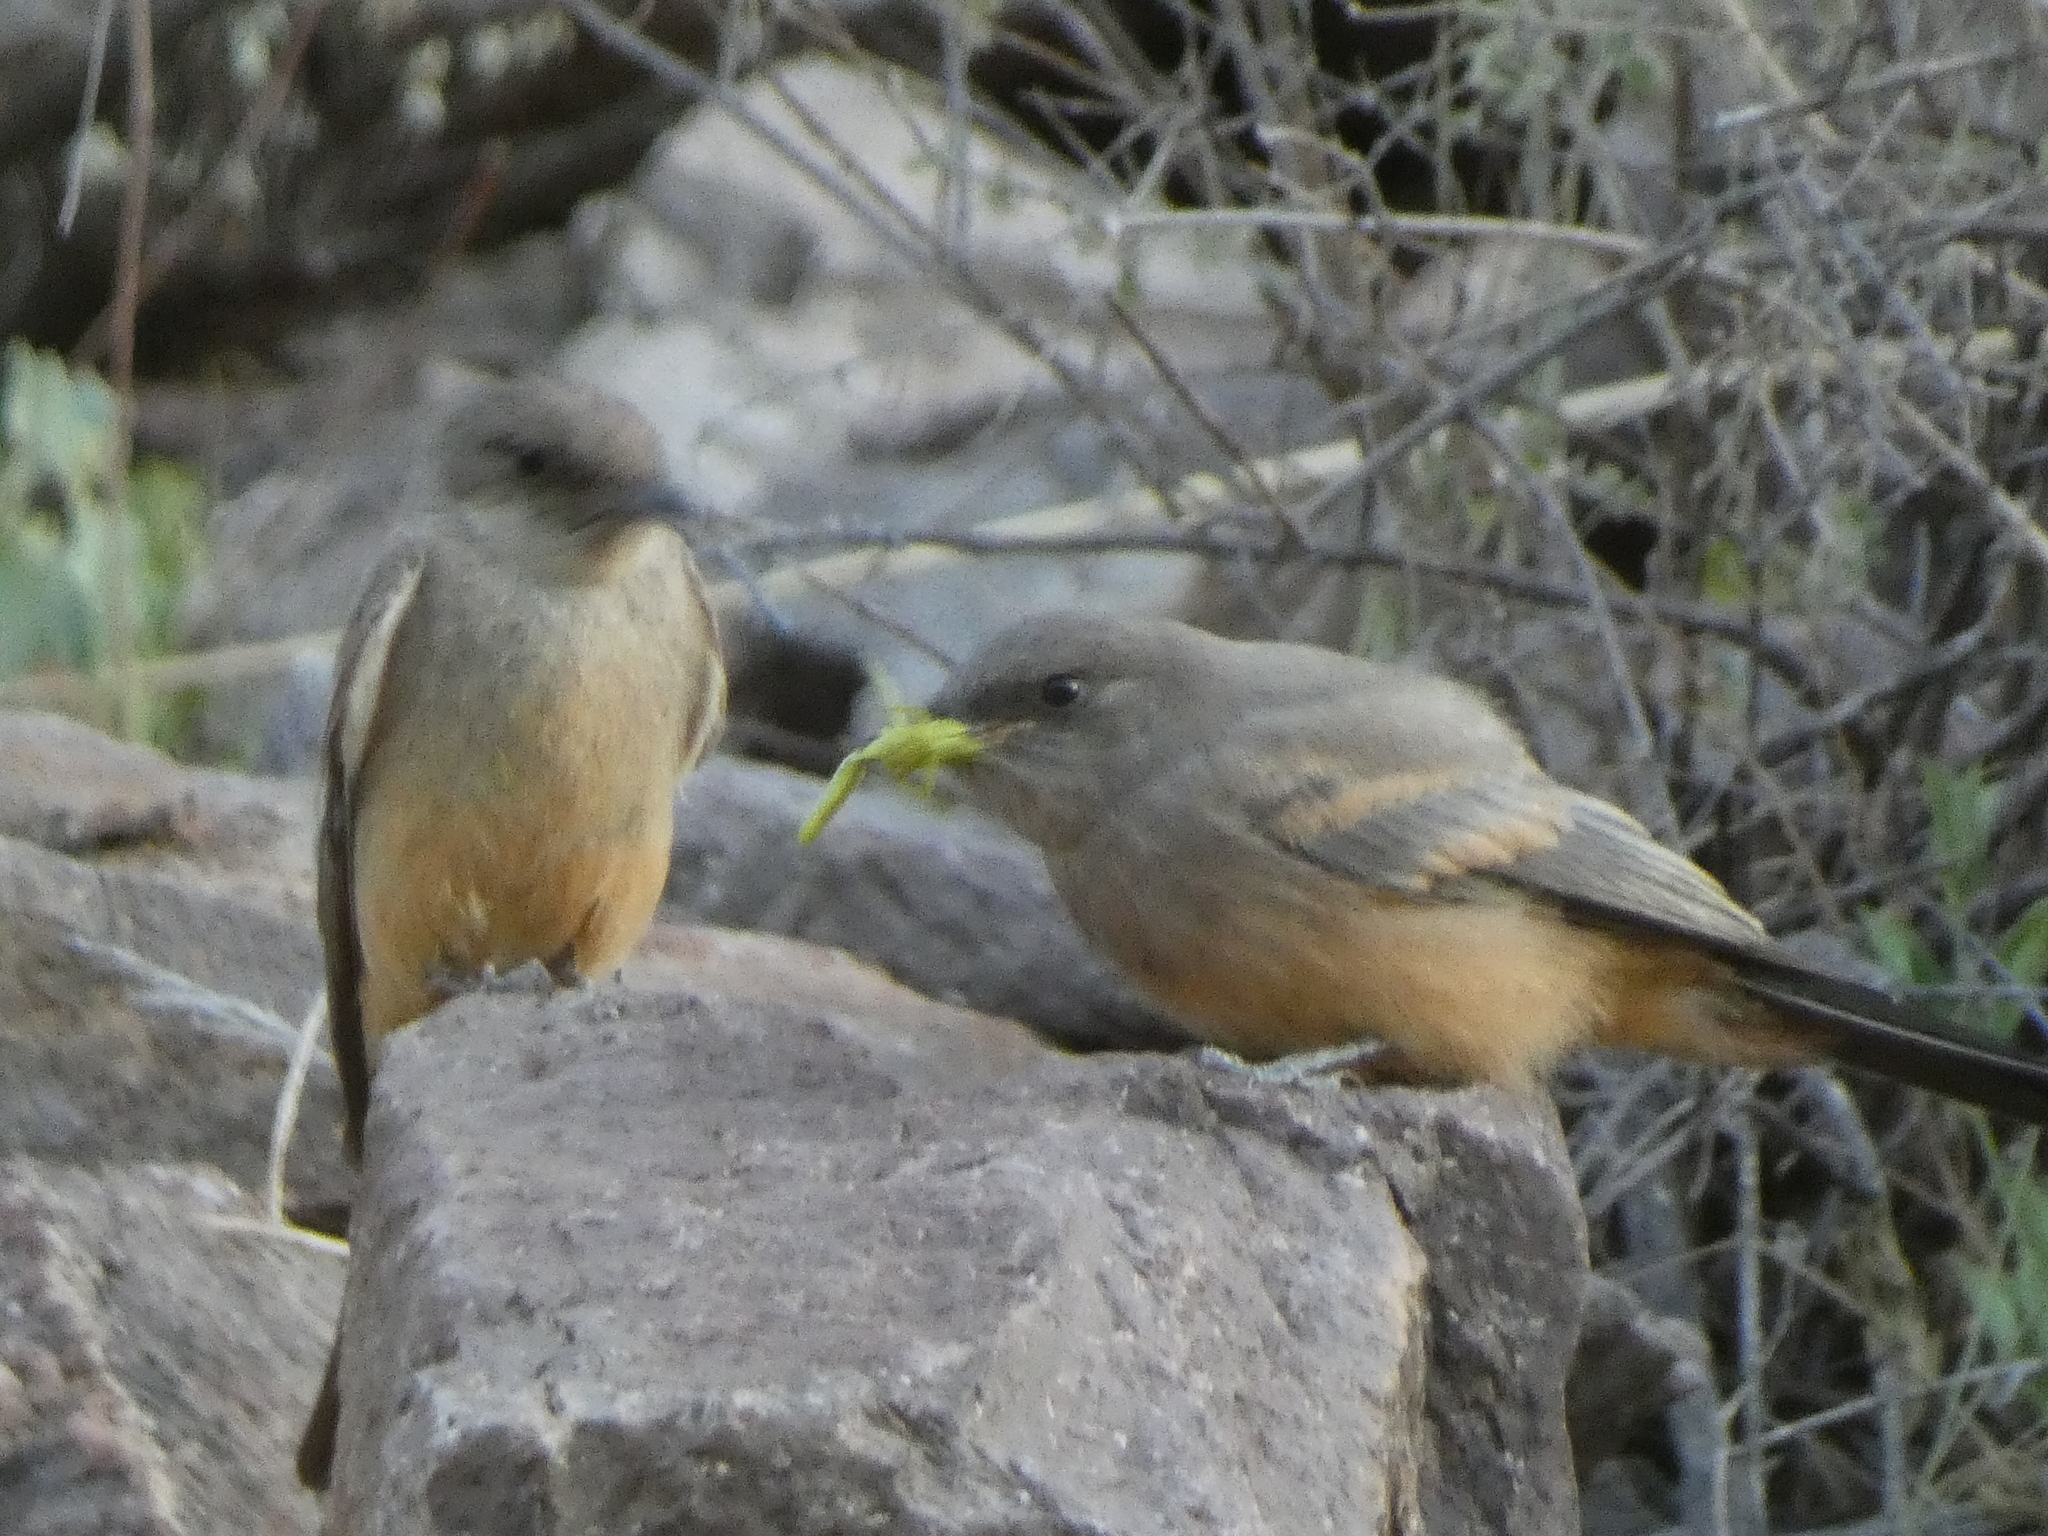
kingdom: Animalia
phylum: Chordata
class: Aves
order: Passeriformes
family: Tyrannidae
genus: Sayornis
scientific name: Sayornis saya
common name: Say's phoebe
